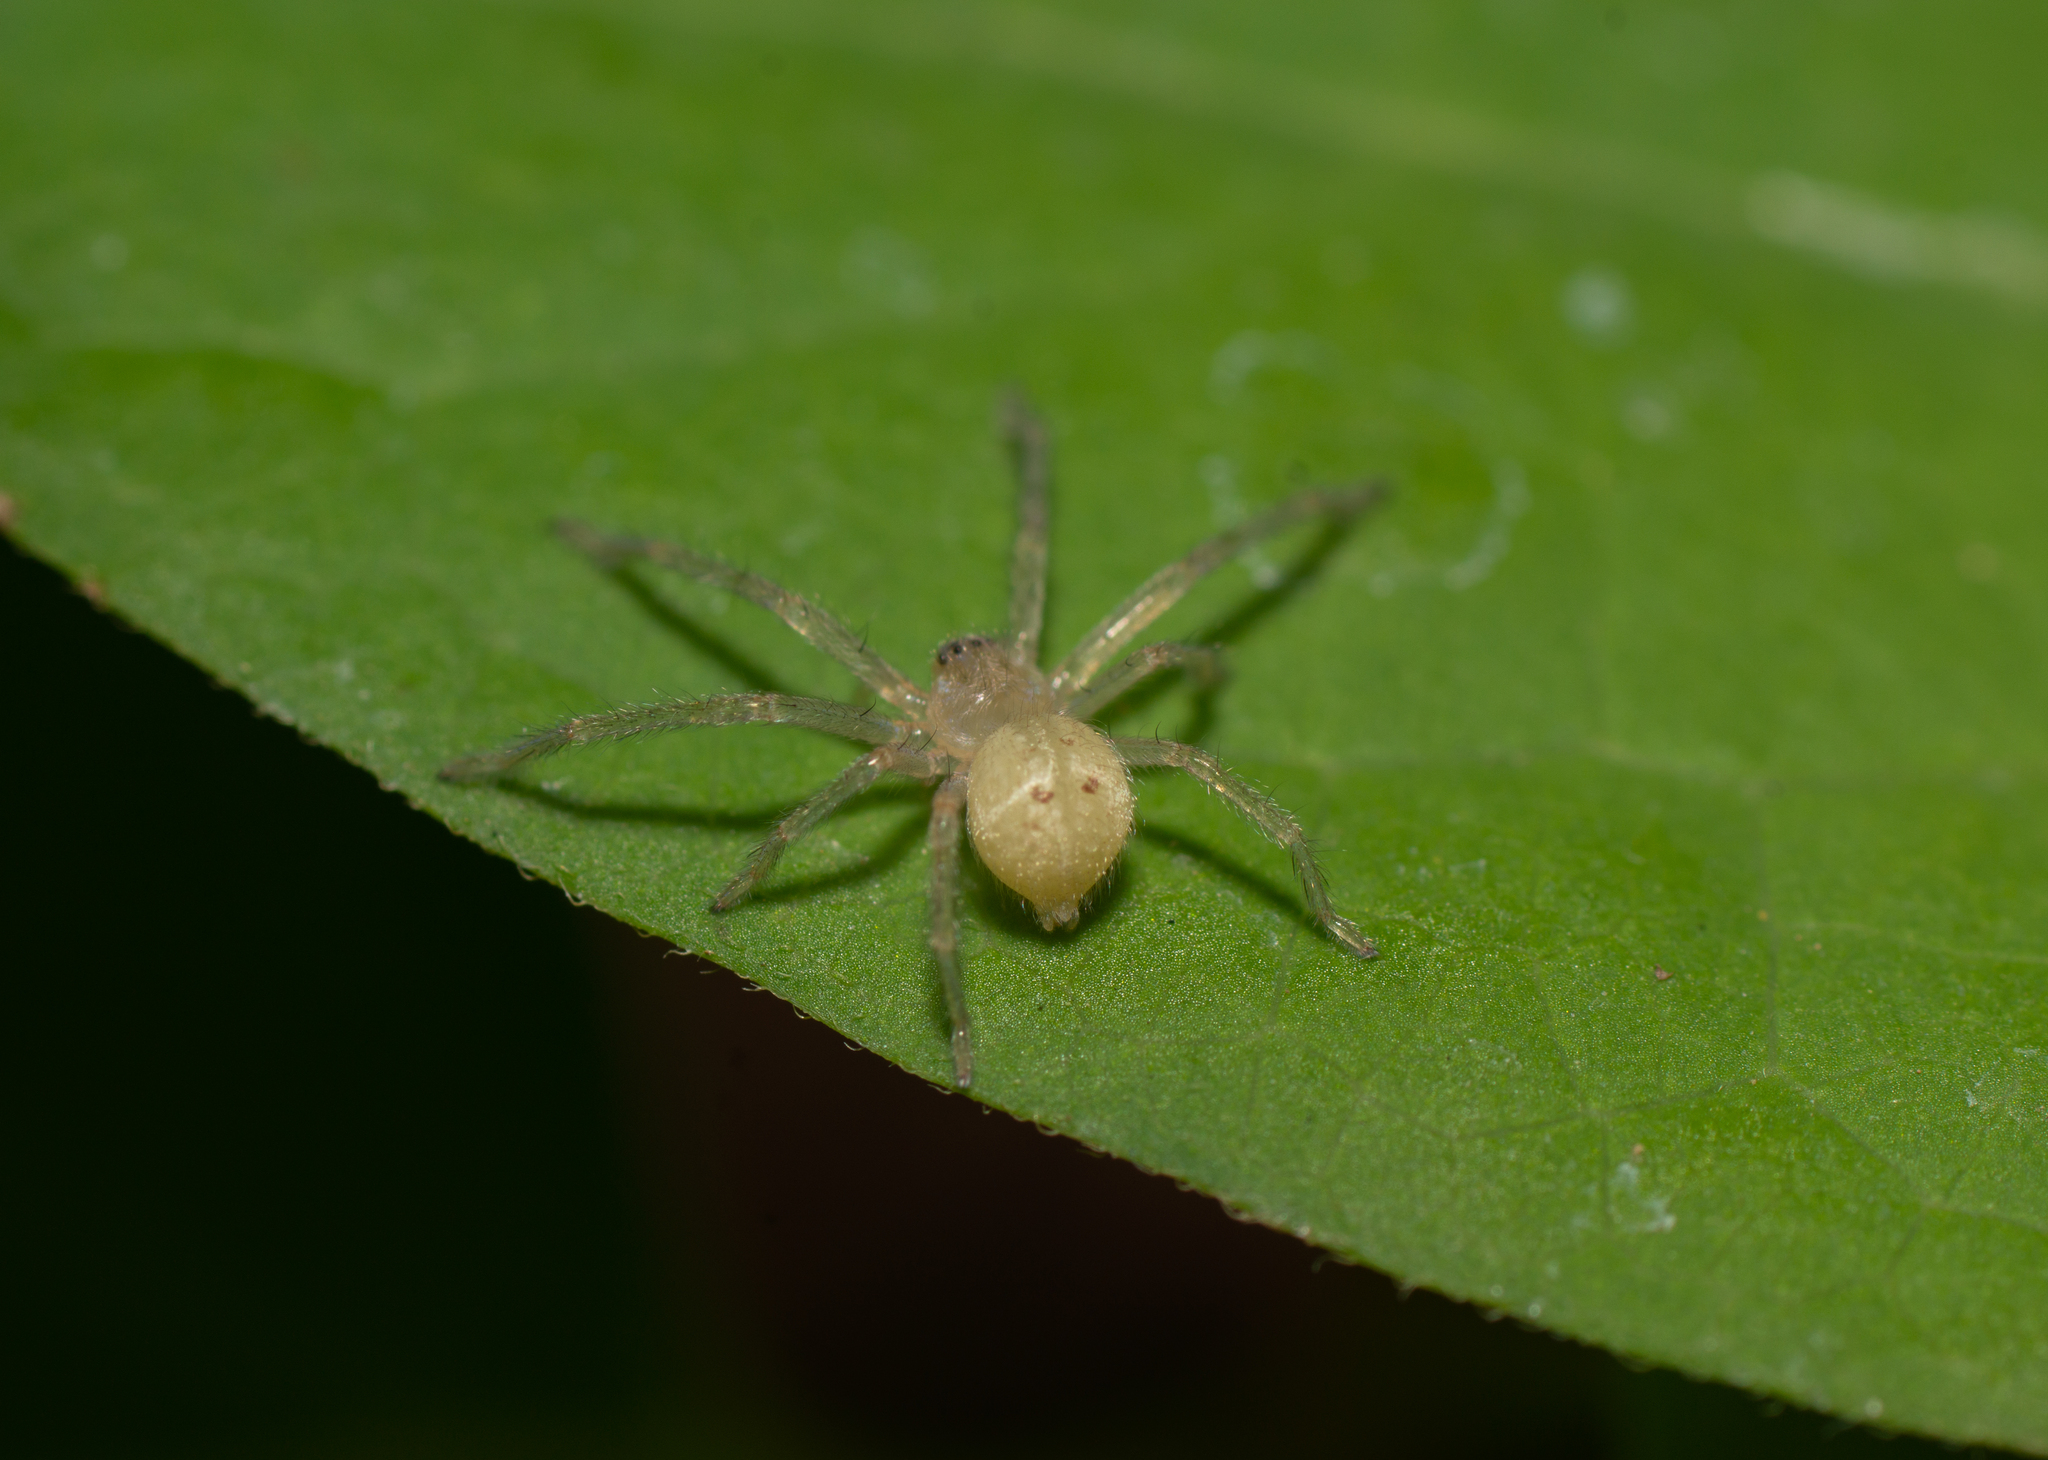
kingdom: Animalia
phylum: Arthropoda
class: Arachnida
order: Araneae
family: Sparassidae
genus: Olios
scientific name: Olios argelasius
